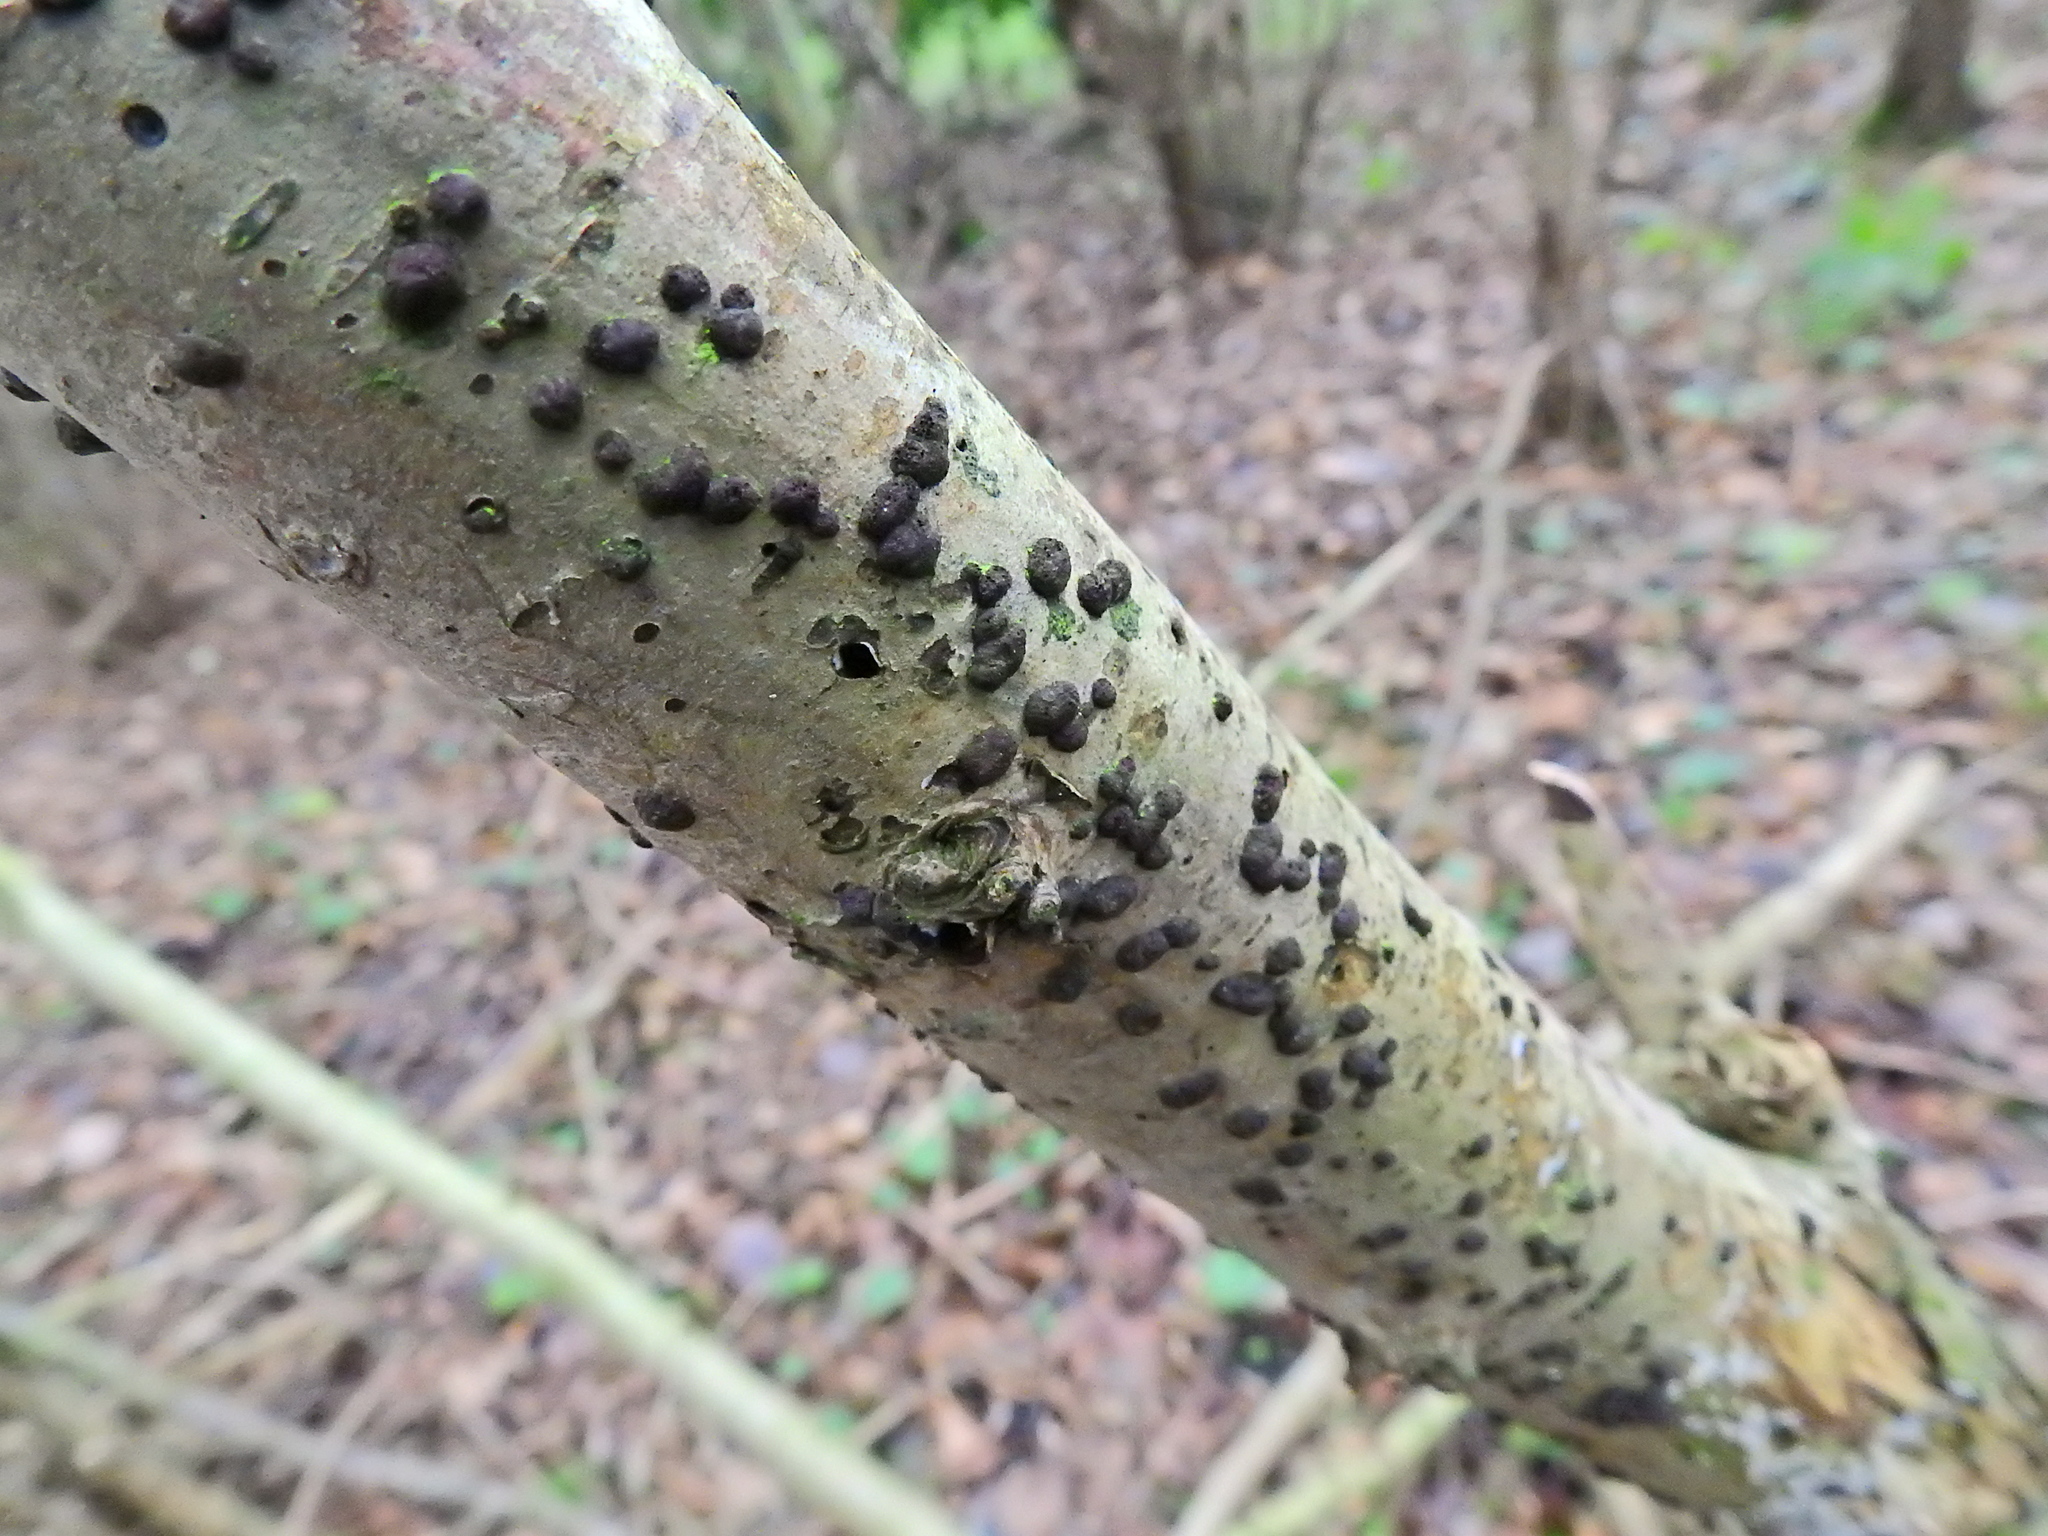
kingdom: Fungi
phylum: Ascomycota
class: Sordariomycetes
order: Xylariales
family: Hypoxylaceae
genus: Hypoxylon
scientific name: Hypoxylon fuscum
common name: Hazel woodwart
